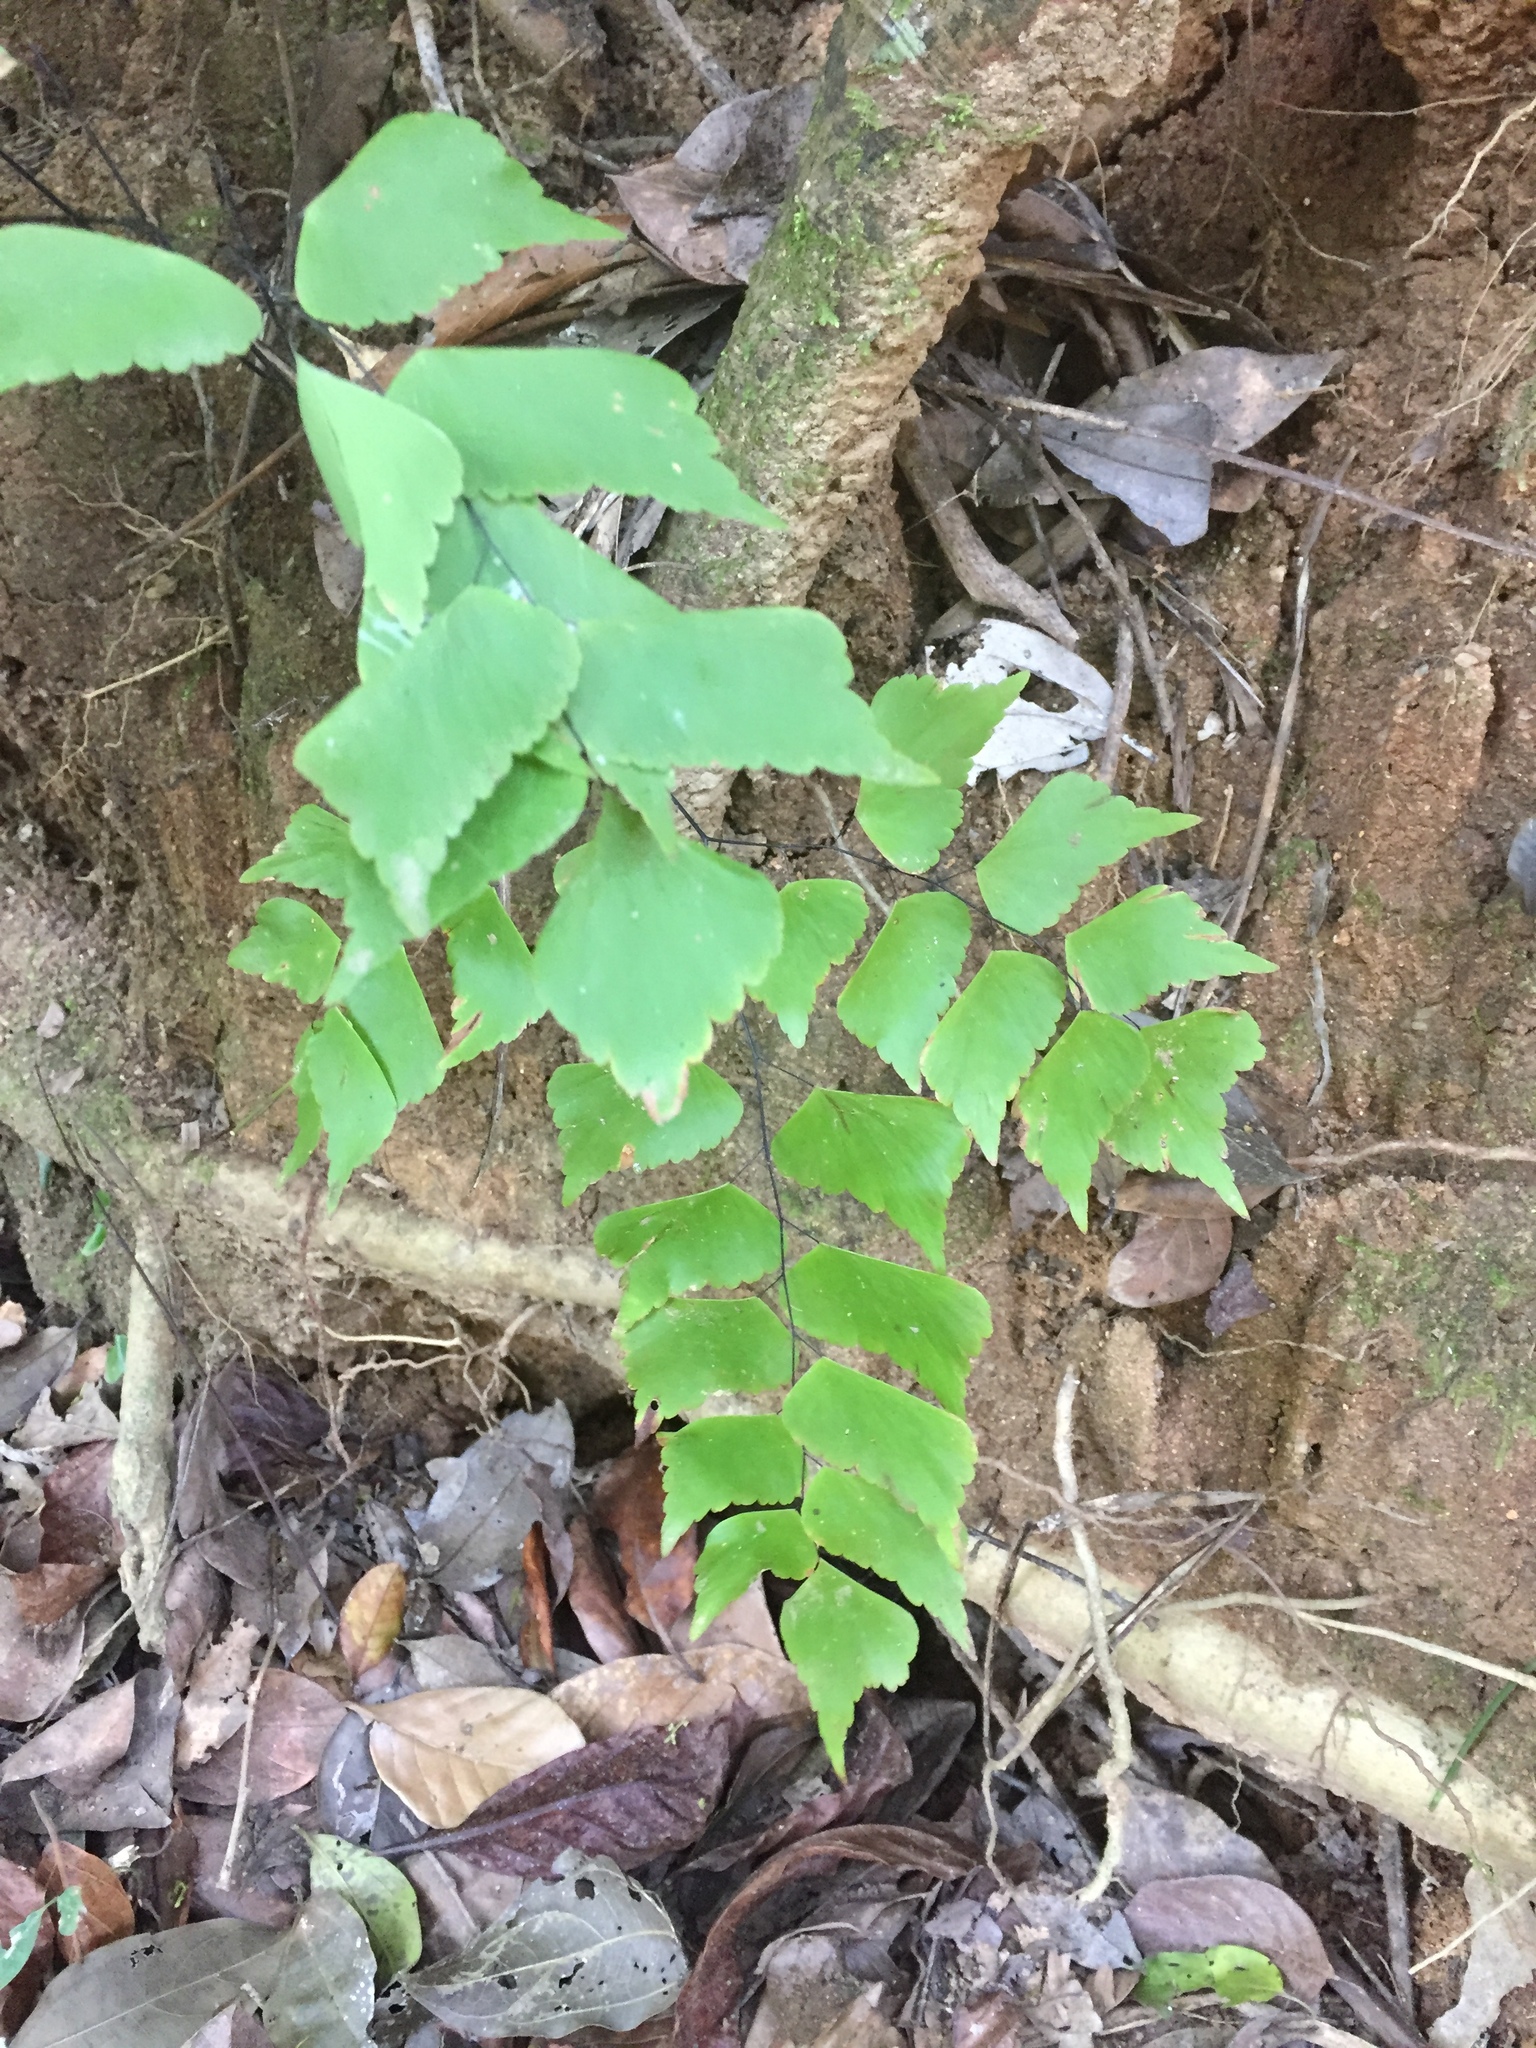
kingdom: Plantae
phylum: Tracheophyta
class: Polypodiopsida
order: Polypodiales
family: Pteridaceae
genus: Adiantum
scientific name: Adiantum trapeziforme
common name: Diamond maidenhair
